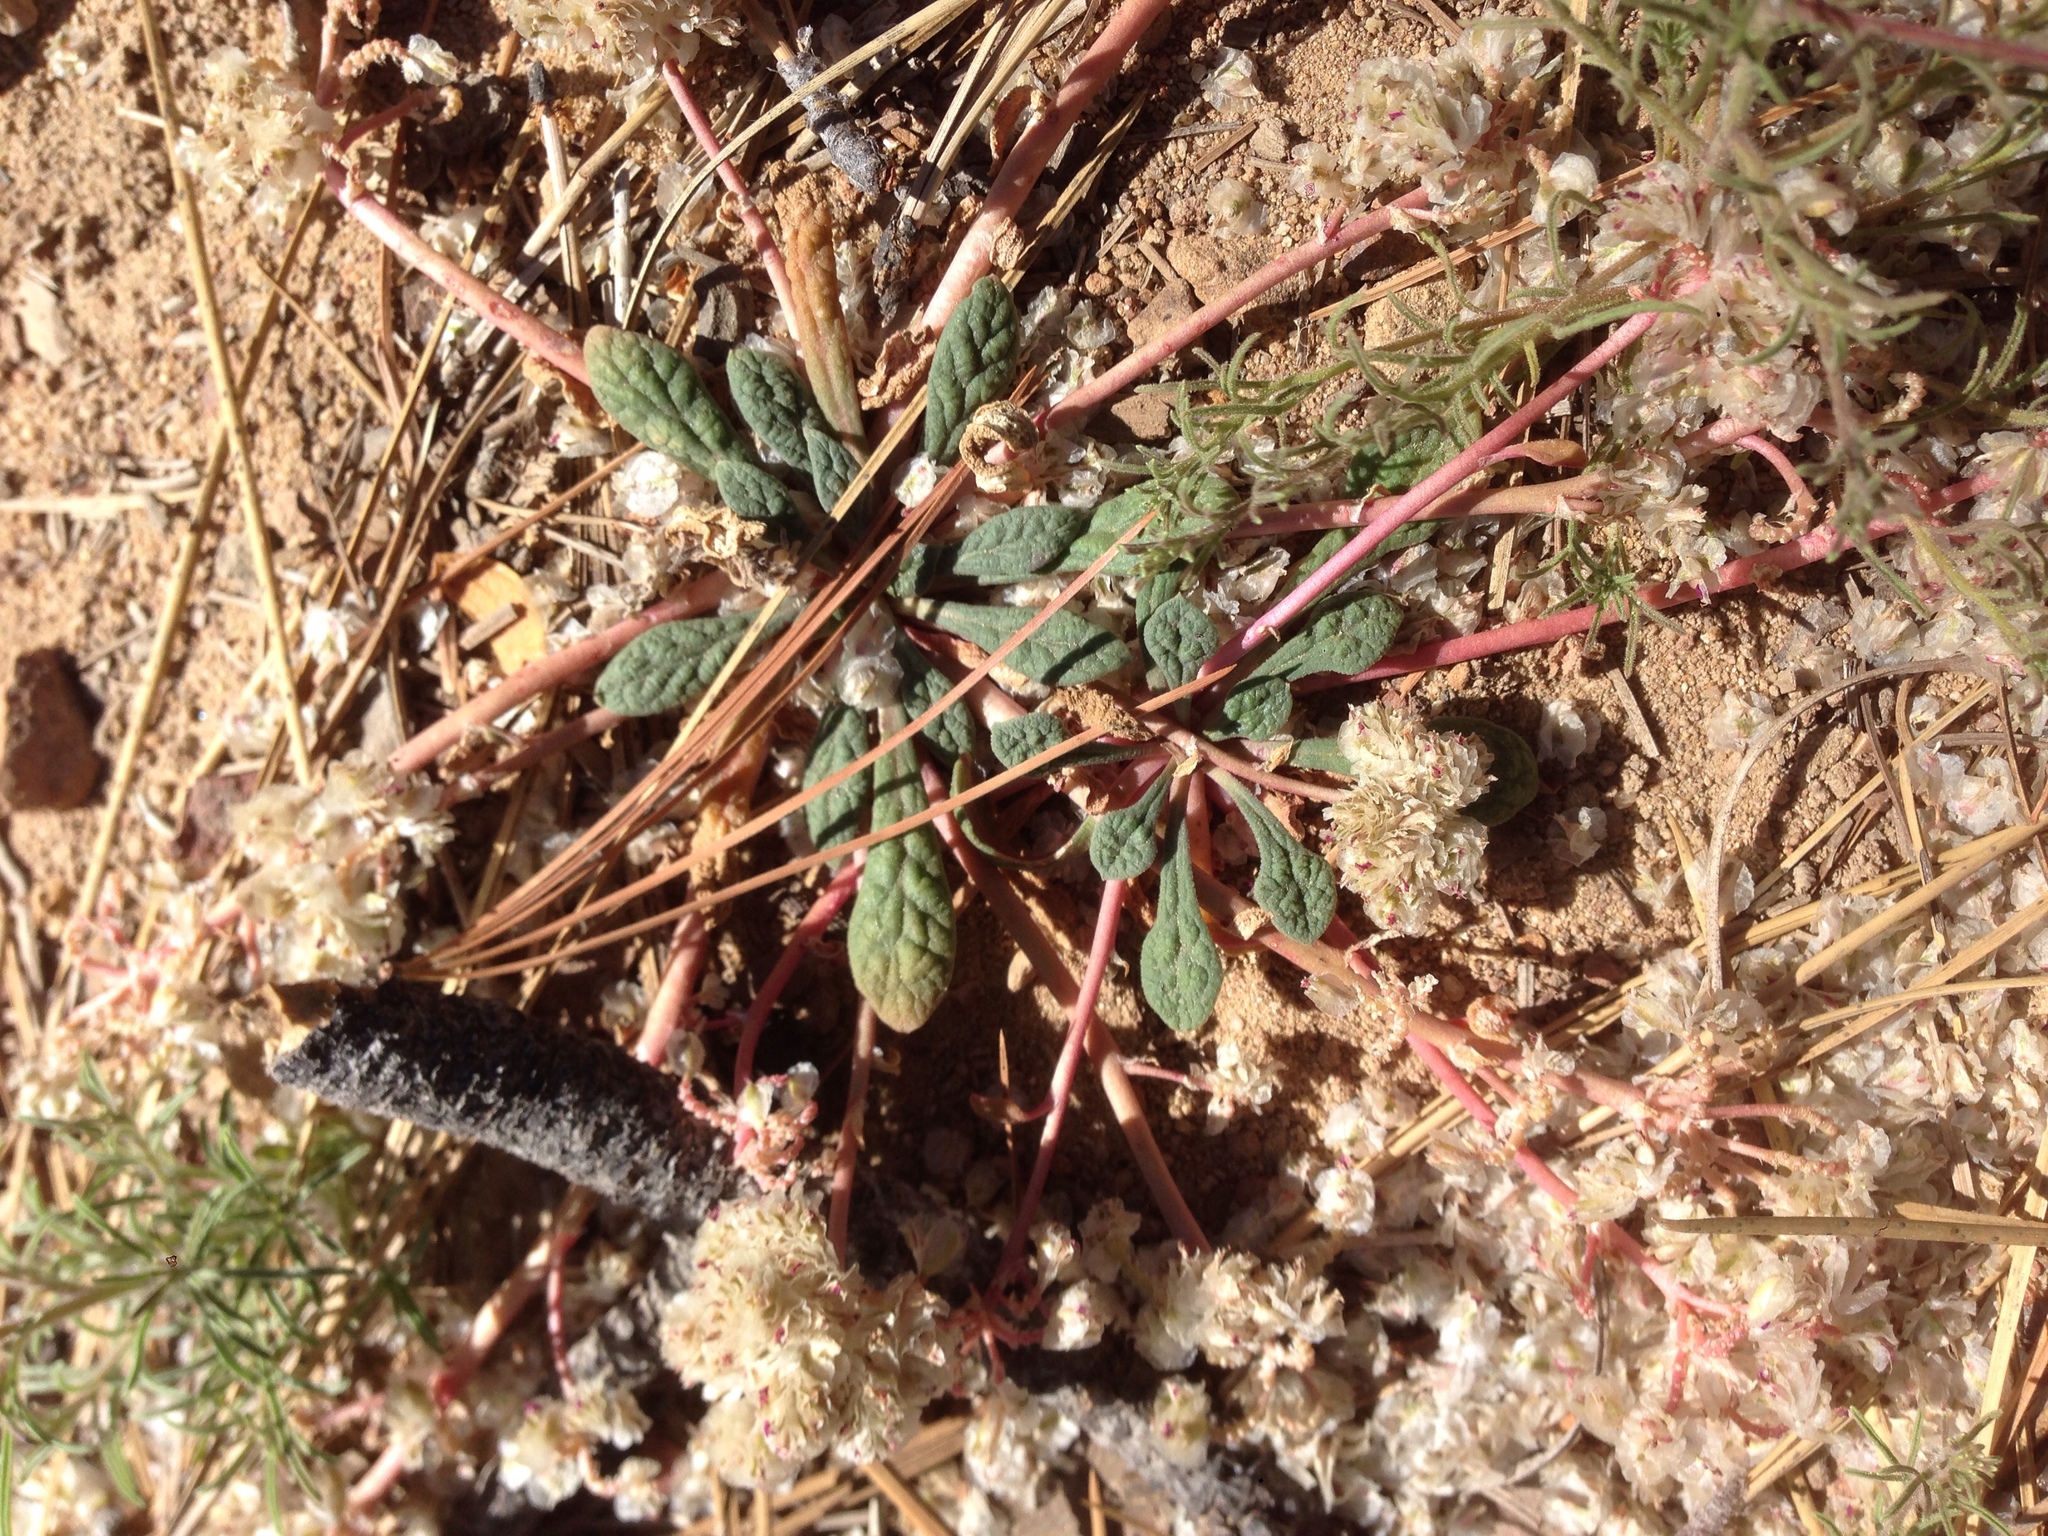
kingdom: Plantae
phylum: Tracheophyta
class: Magnoliopsida
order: Caryophyllales
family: Montiaceae
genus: Calyptridium
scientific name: Calyptridium monospermum
